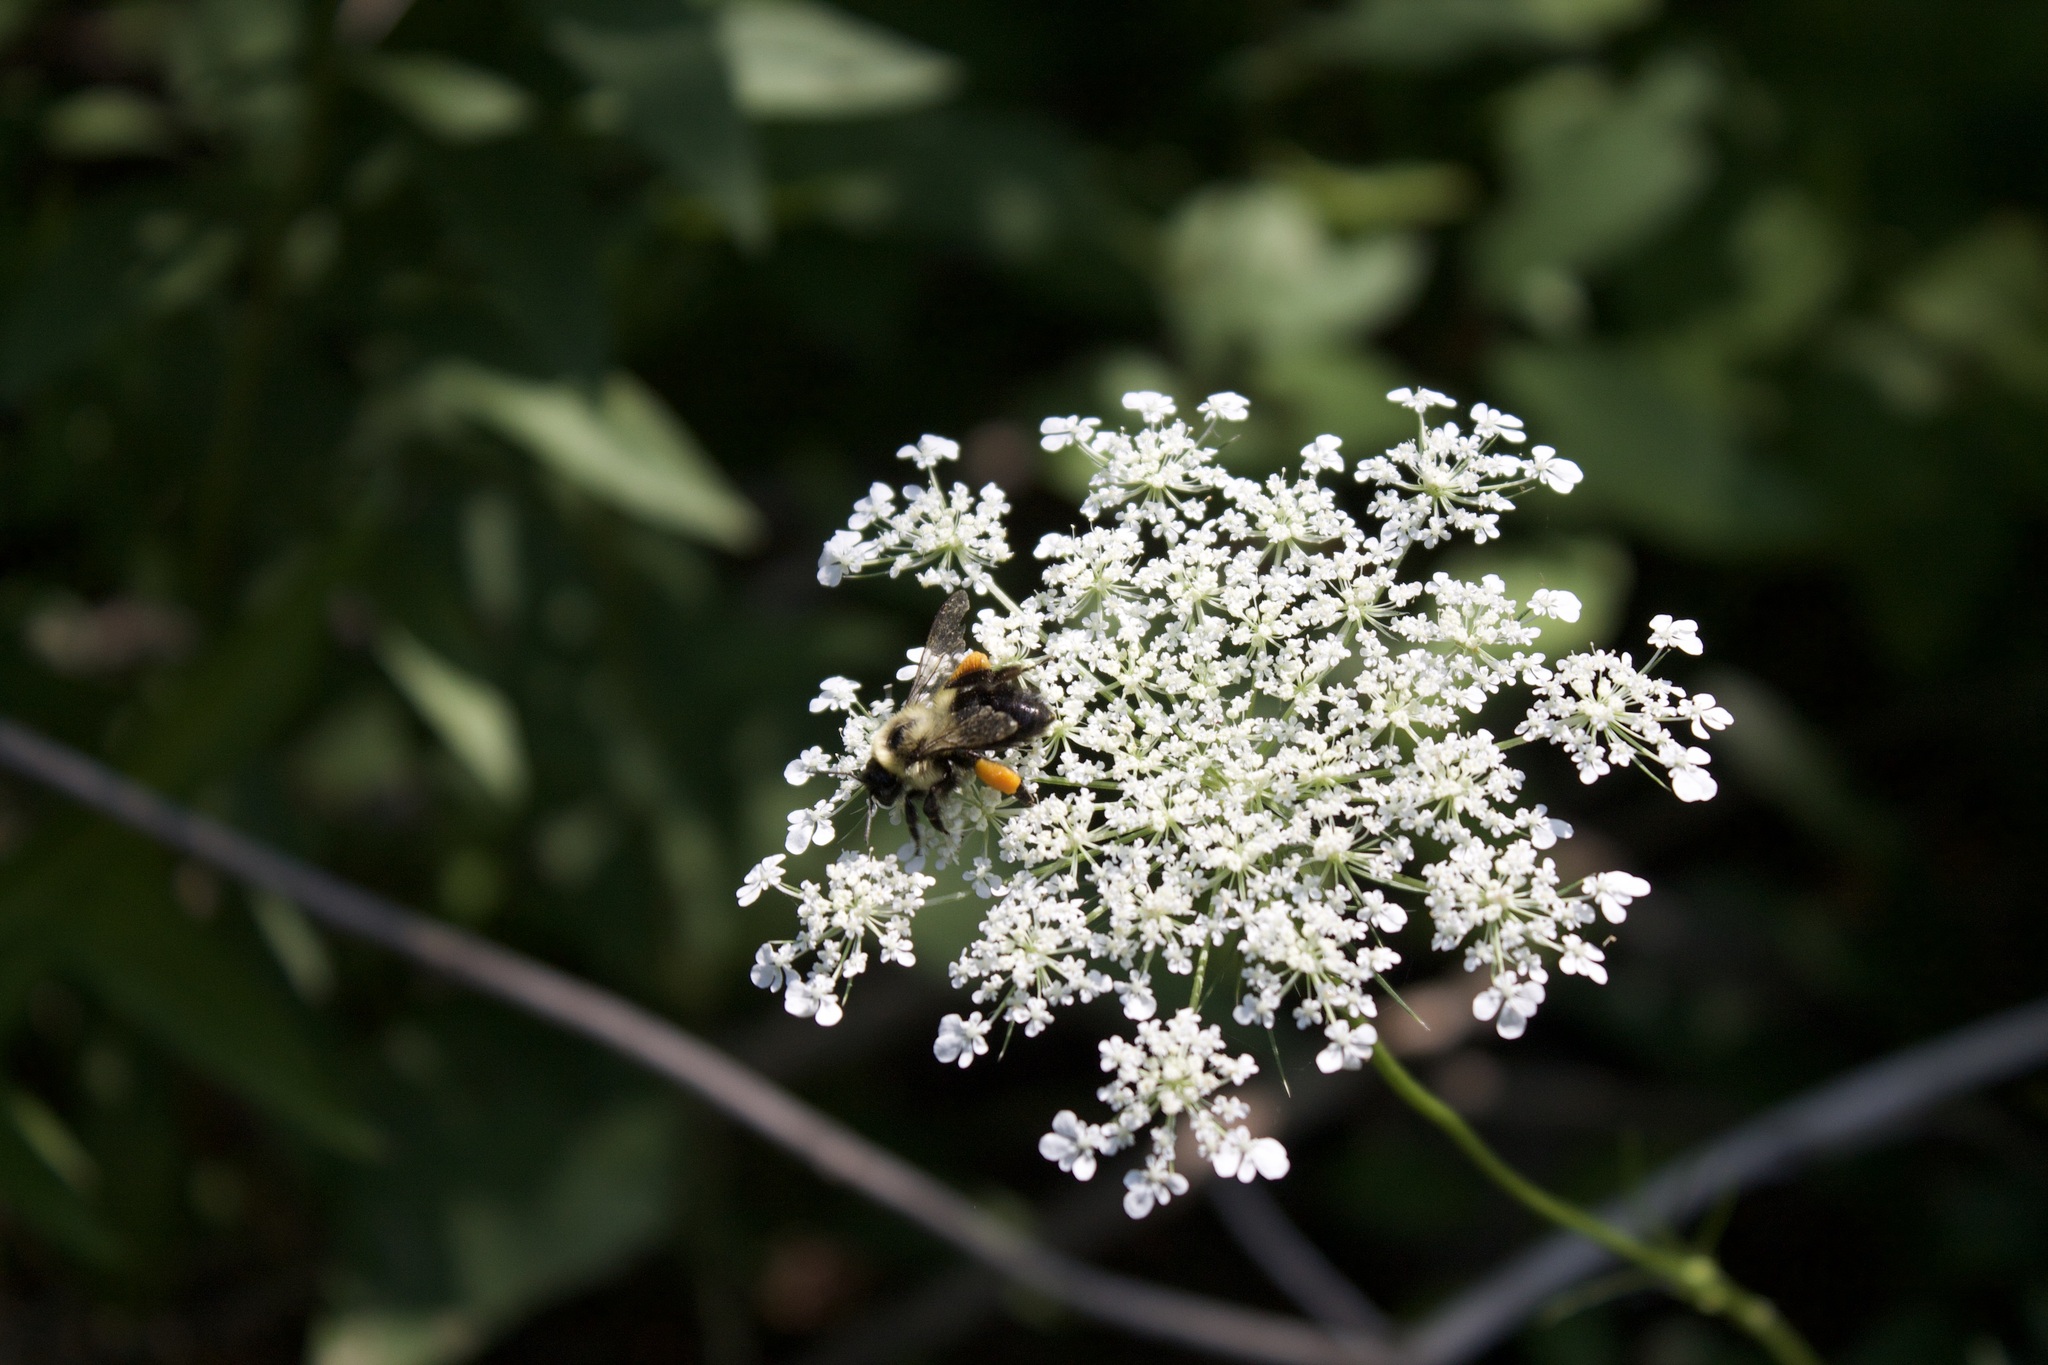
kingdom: Animalia
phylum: Arthropoda
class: Insecta
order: Hymenoptera
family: Apidae
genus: Bombus
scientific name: Bombus impatiens
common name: Common eastern bumble bee
